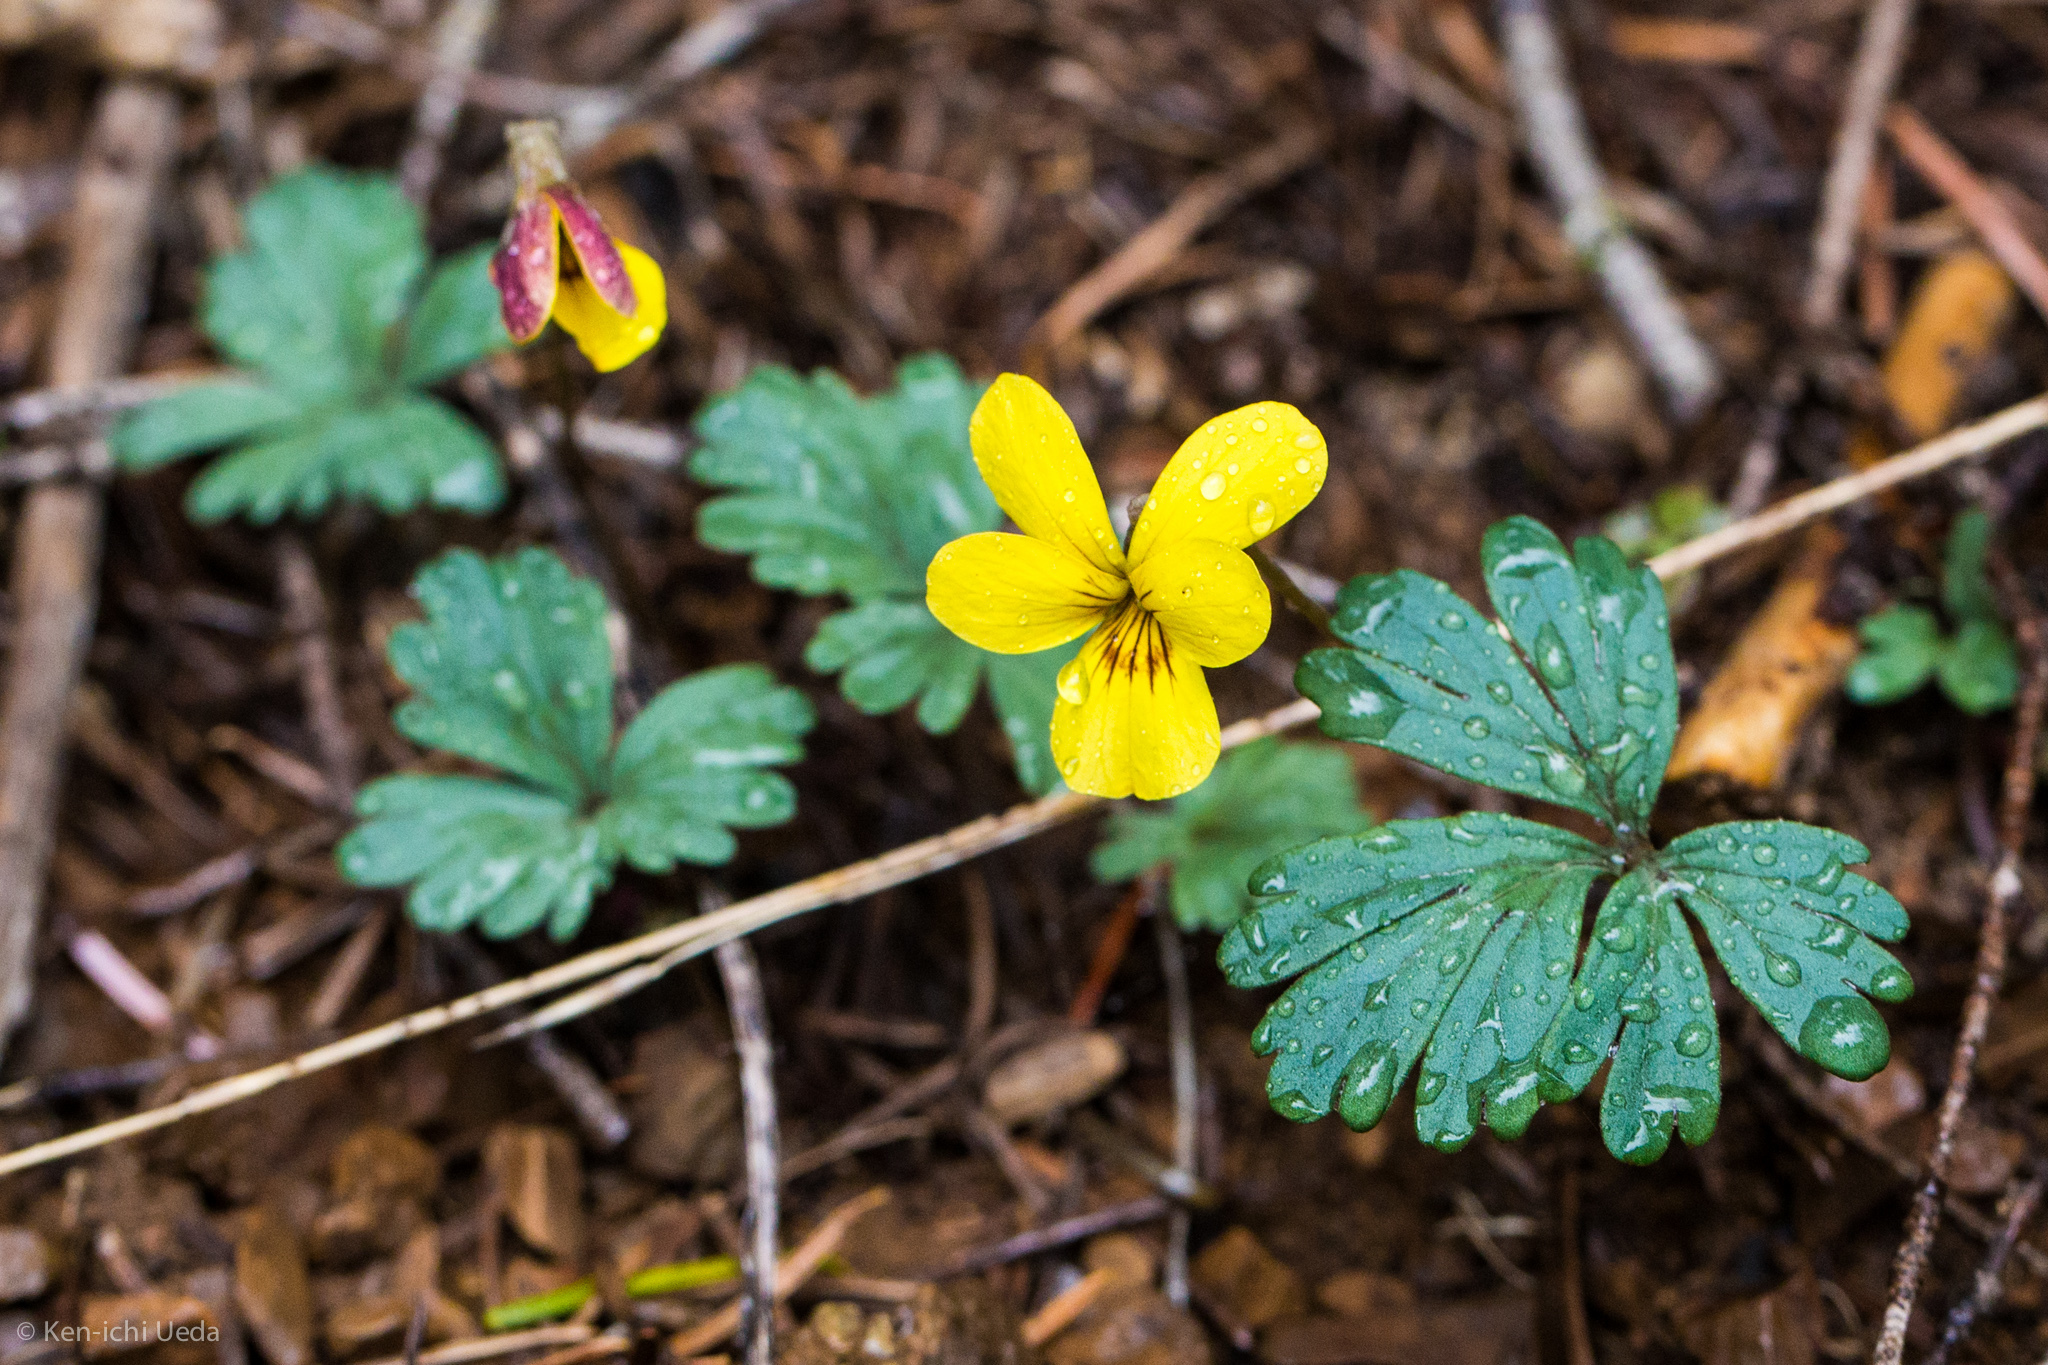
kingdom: Plantae
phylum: Tracheophyta
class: Magnoliopsida
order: Malpighiales
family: Violaceae
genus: Viola
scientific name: Viola sheltonii
